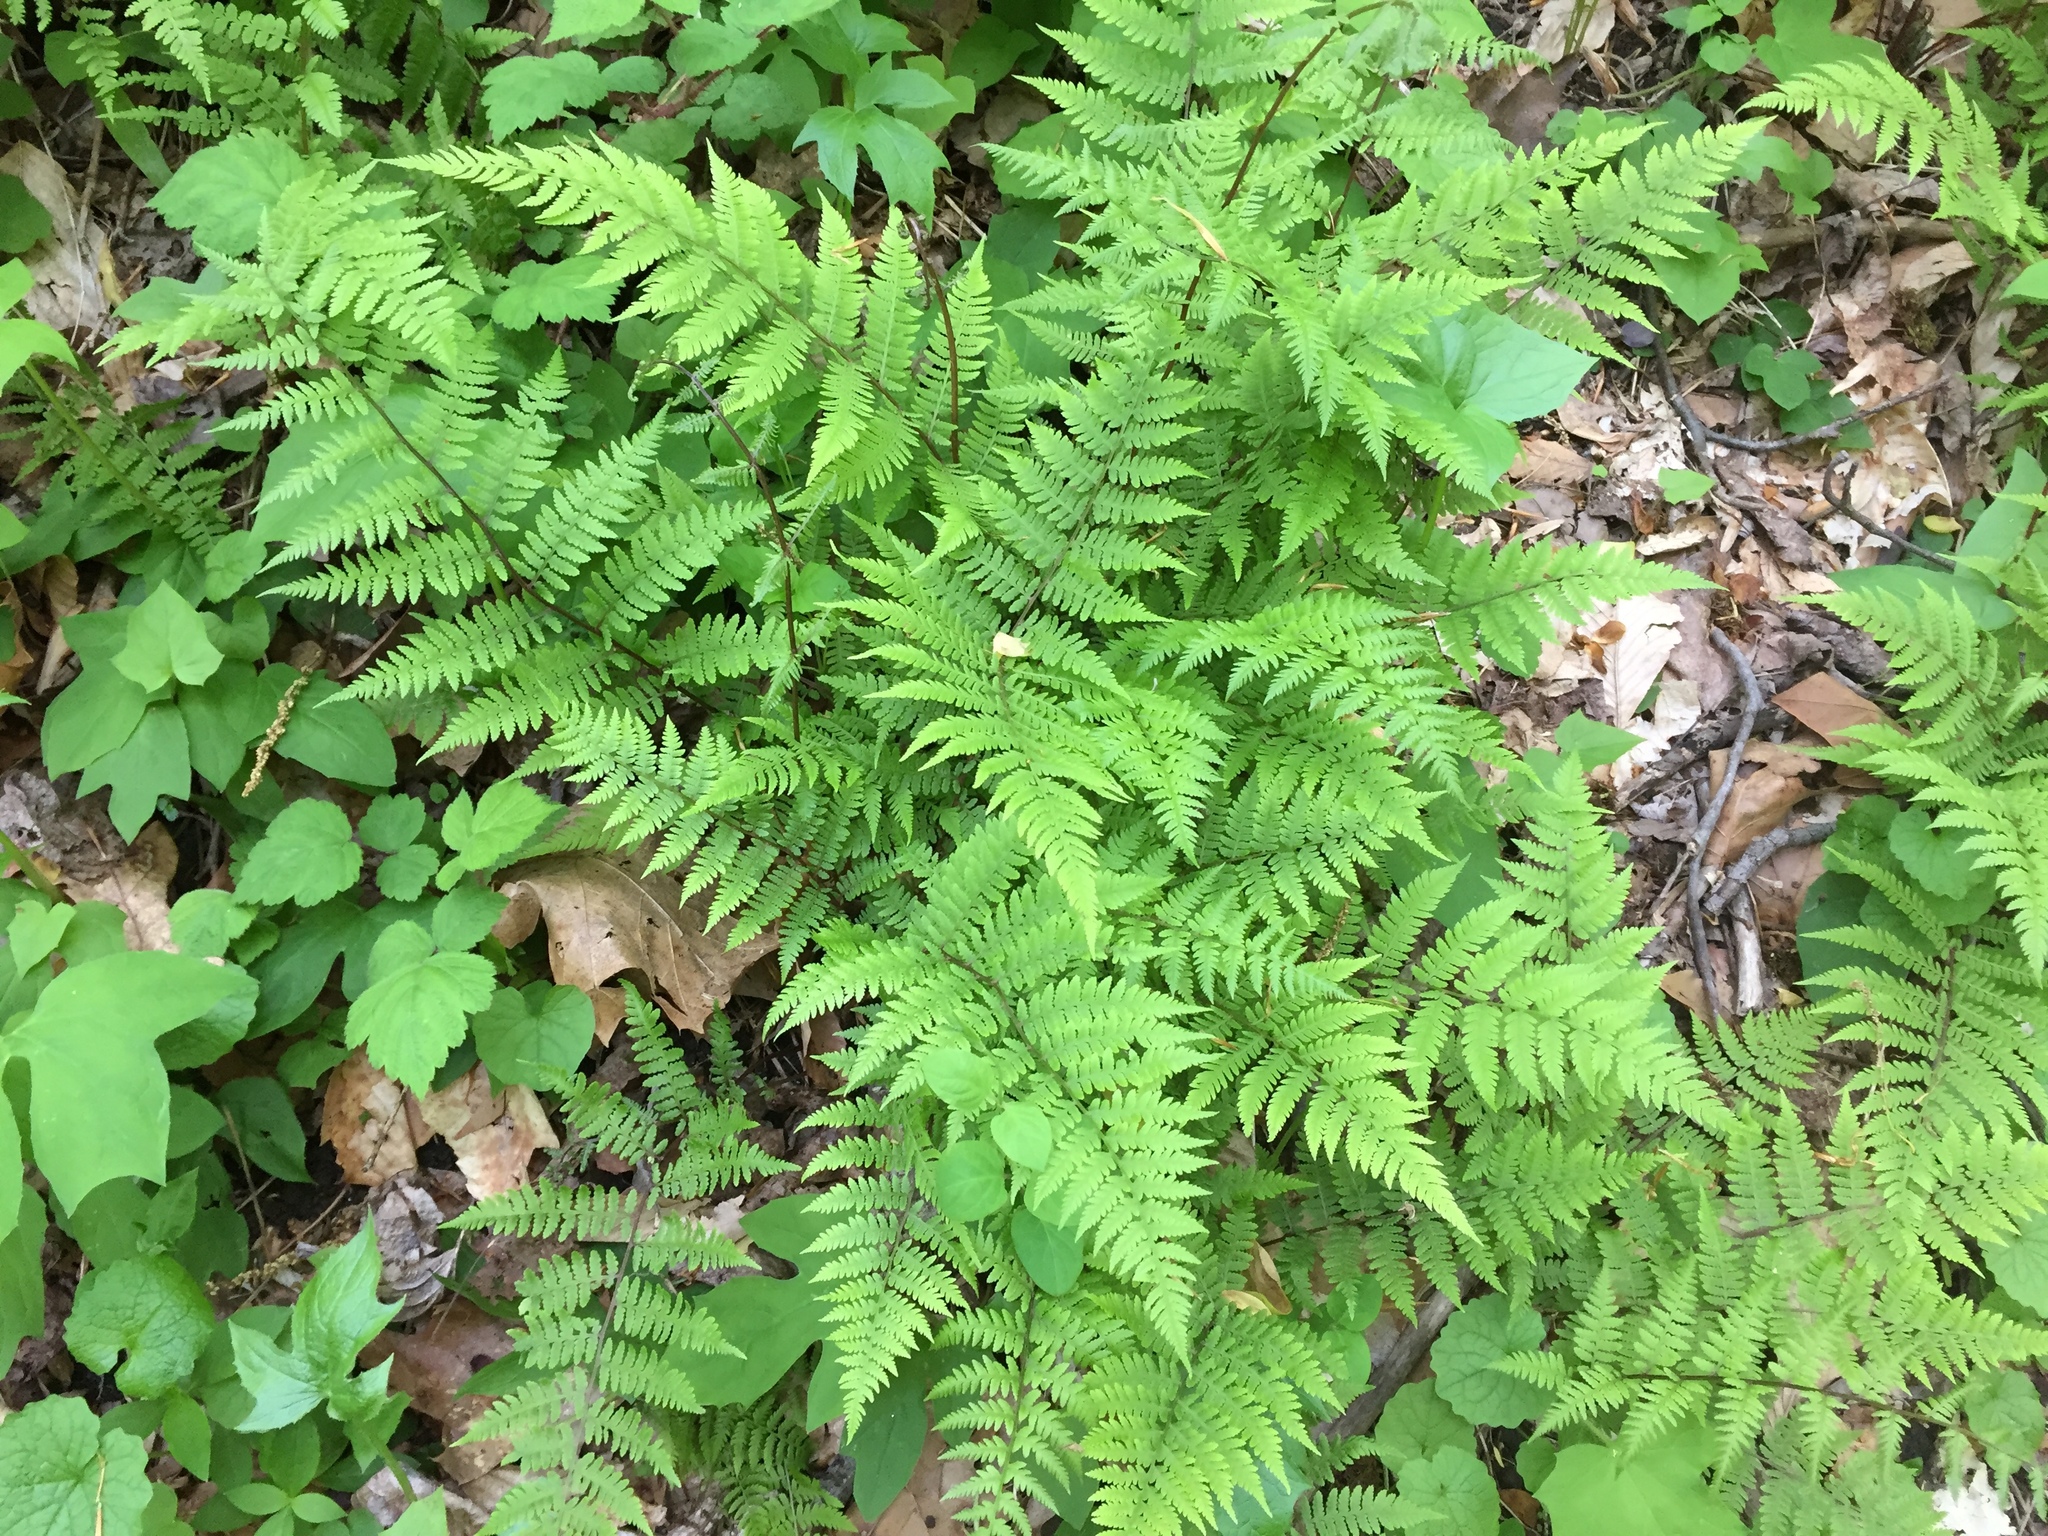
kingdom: Plantae
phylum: Tracheophyta
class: Polypodiopsida
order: Polypodiales
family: Athyriaceae
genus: Athyrium
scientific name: Athyrium asplenioides
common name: Southern lady fern
